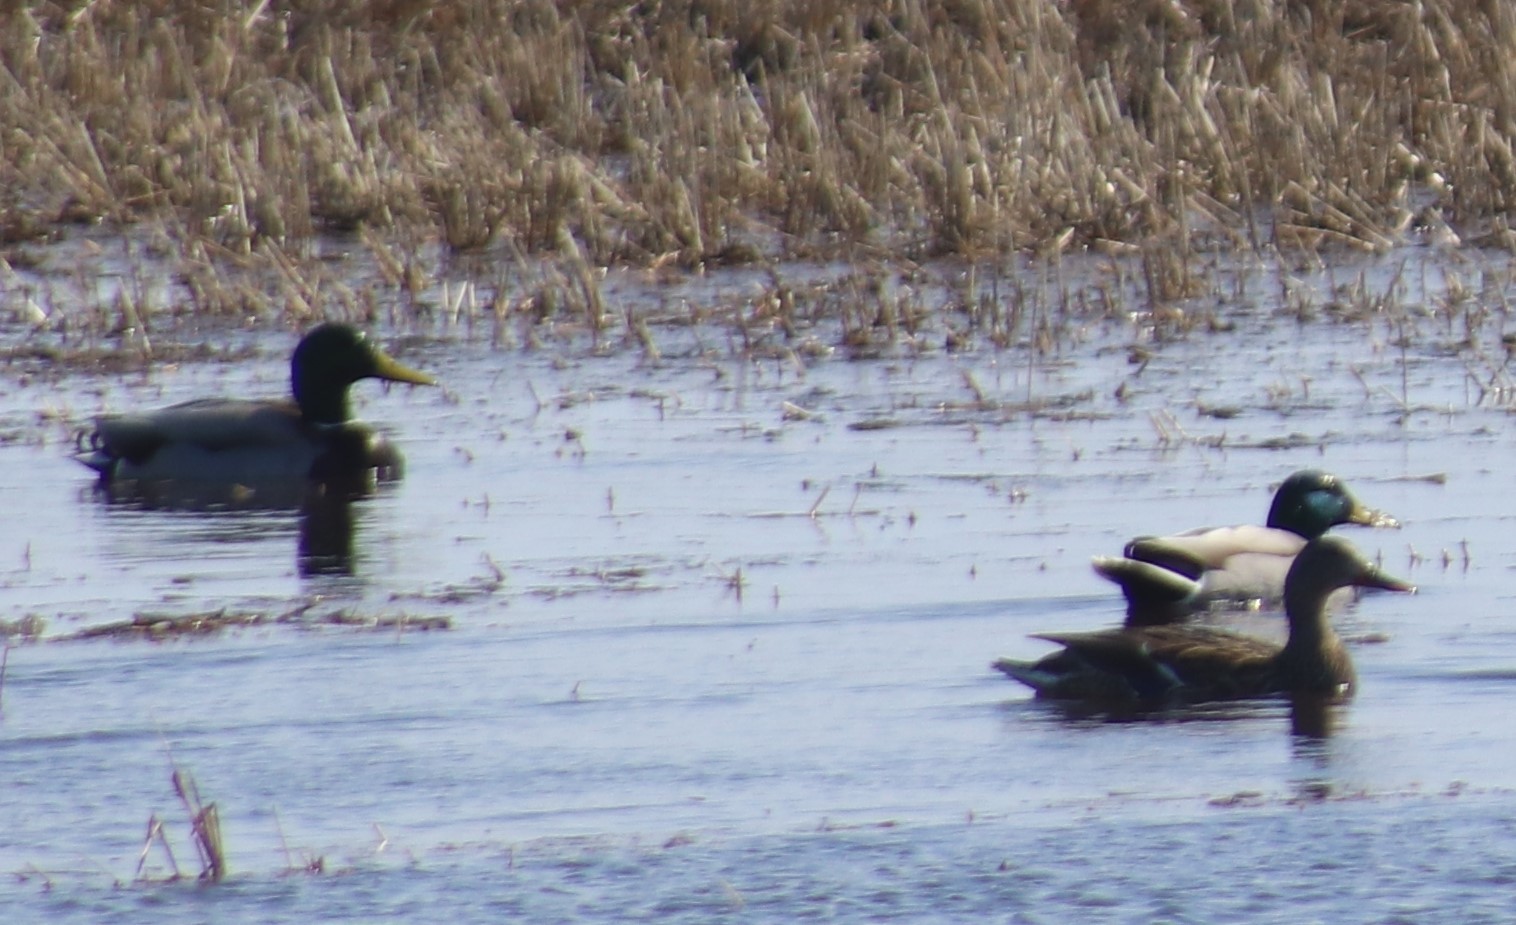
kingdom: Animalia
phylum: Chordata
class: Aves
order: Anseriformes
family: Anatidae
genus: Anas
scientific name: Anas platyrhynchos
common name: Mallard
